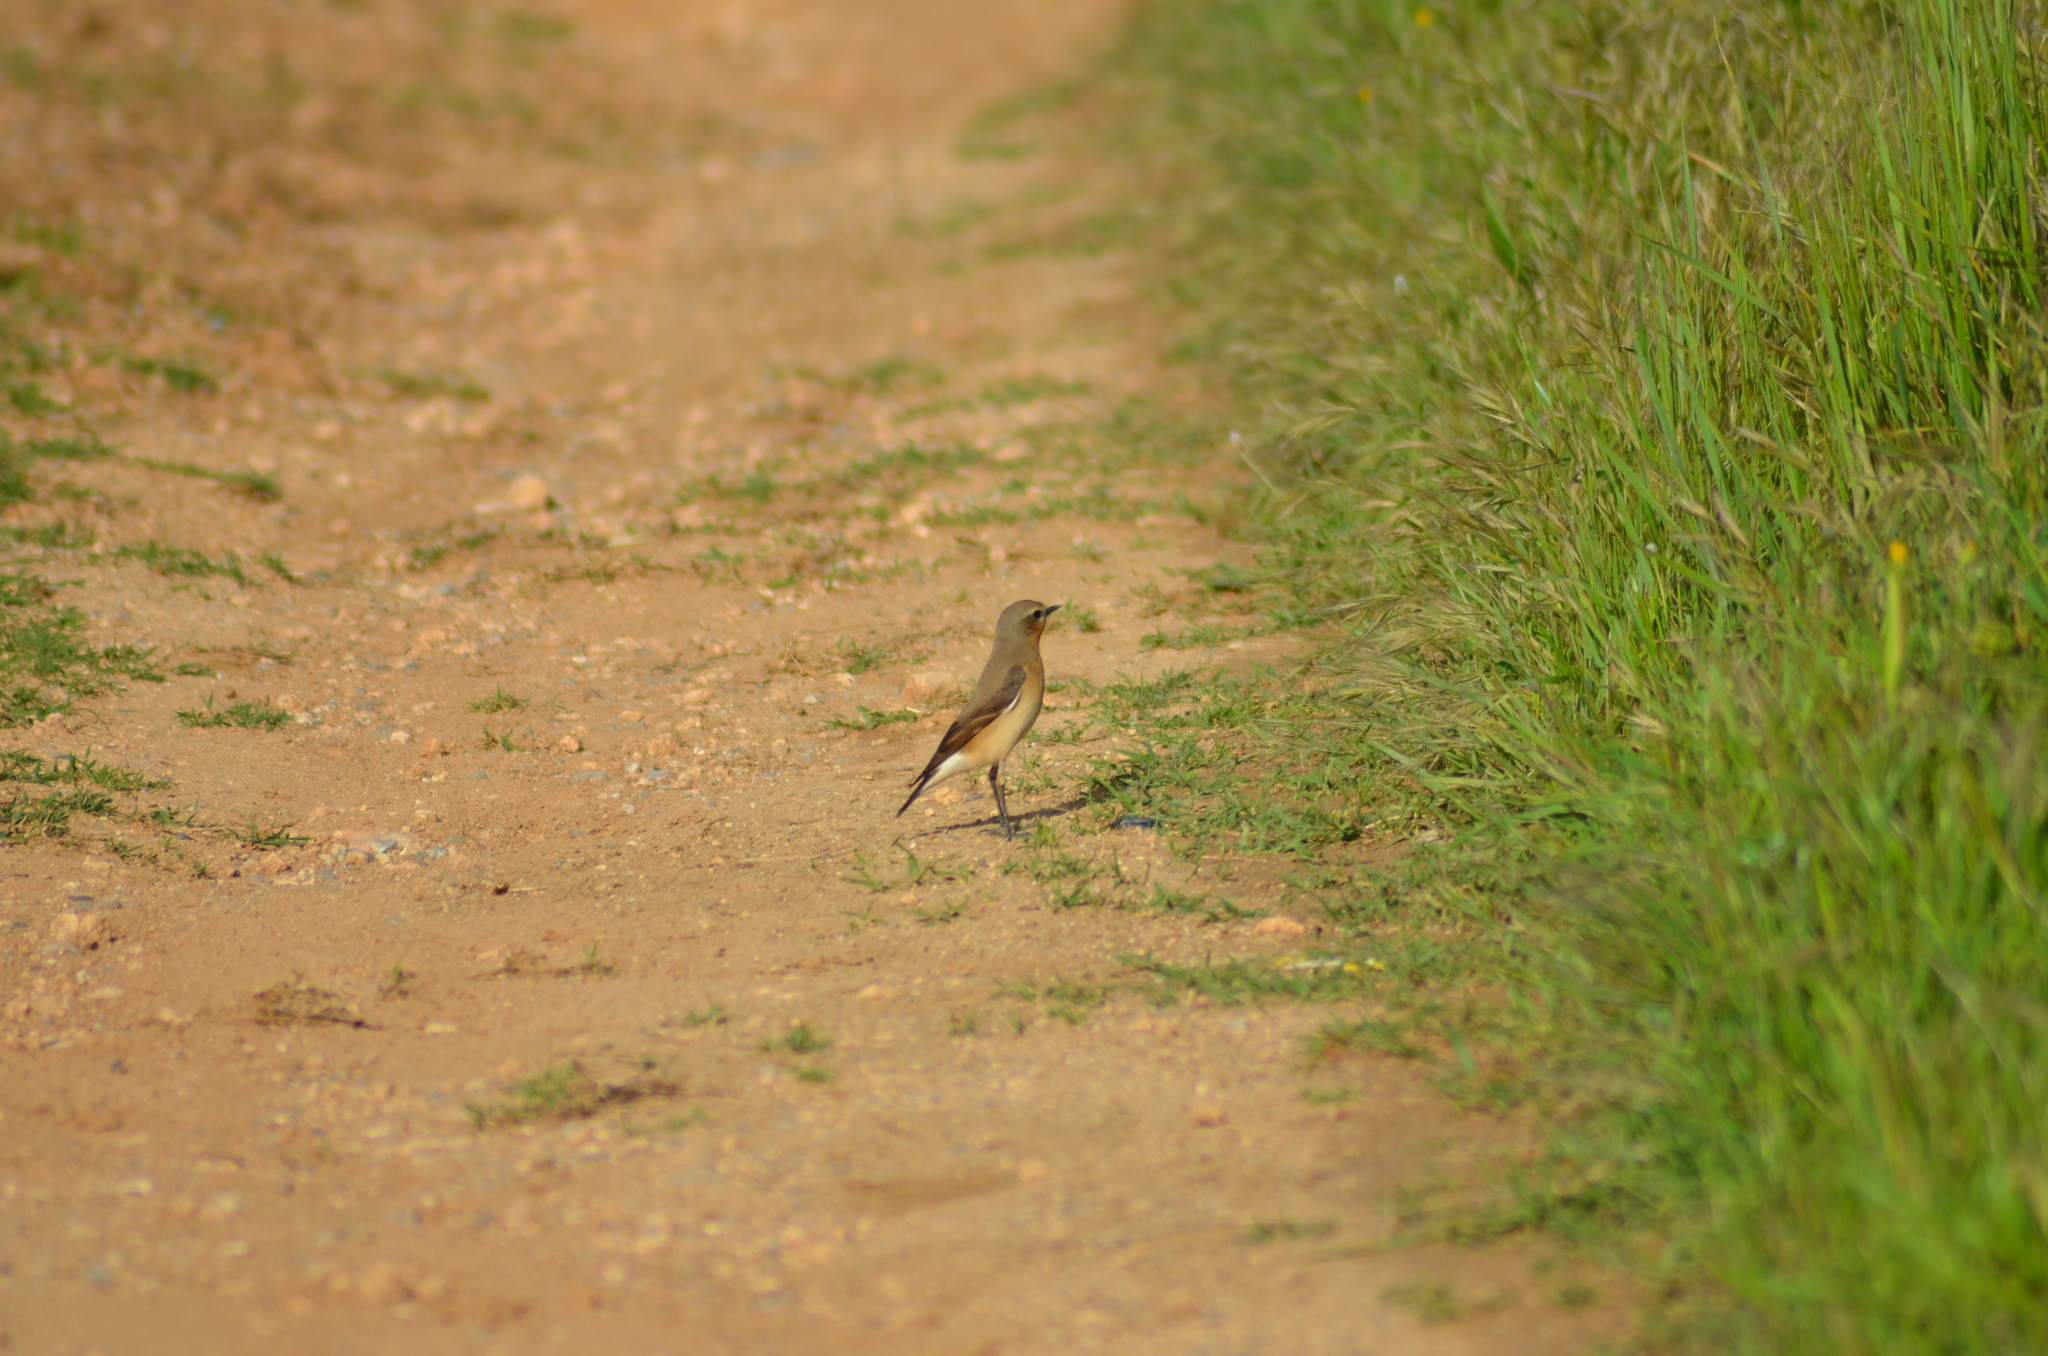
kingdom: Animalia
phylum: Chordata
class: Aves
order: Passeriformes
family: Muscicapidae
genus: Oenanthe
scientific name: Oenanthe oenanthe
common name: Northern wheatear
